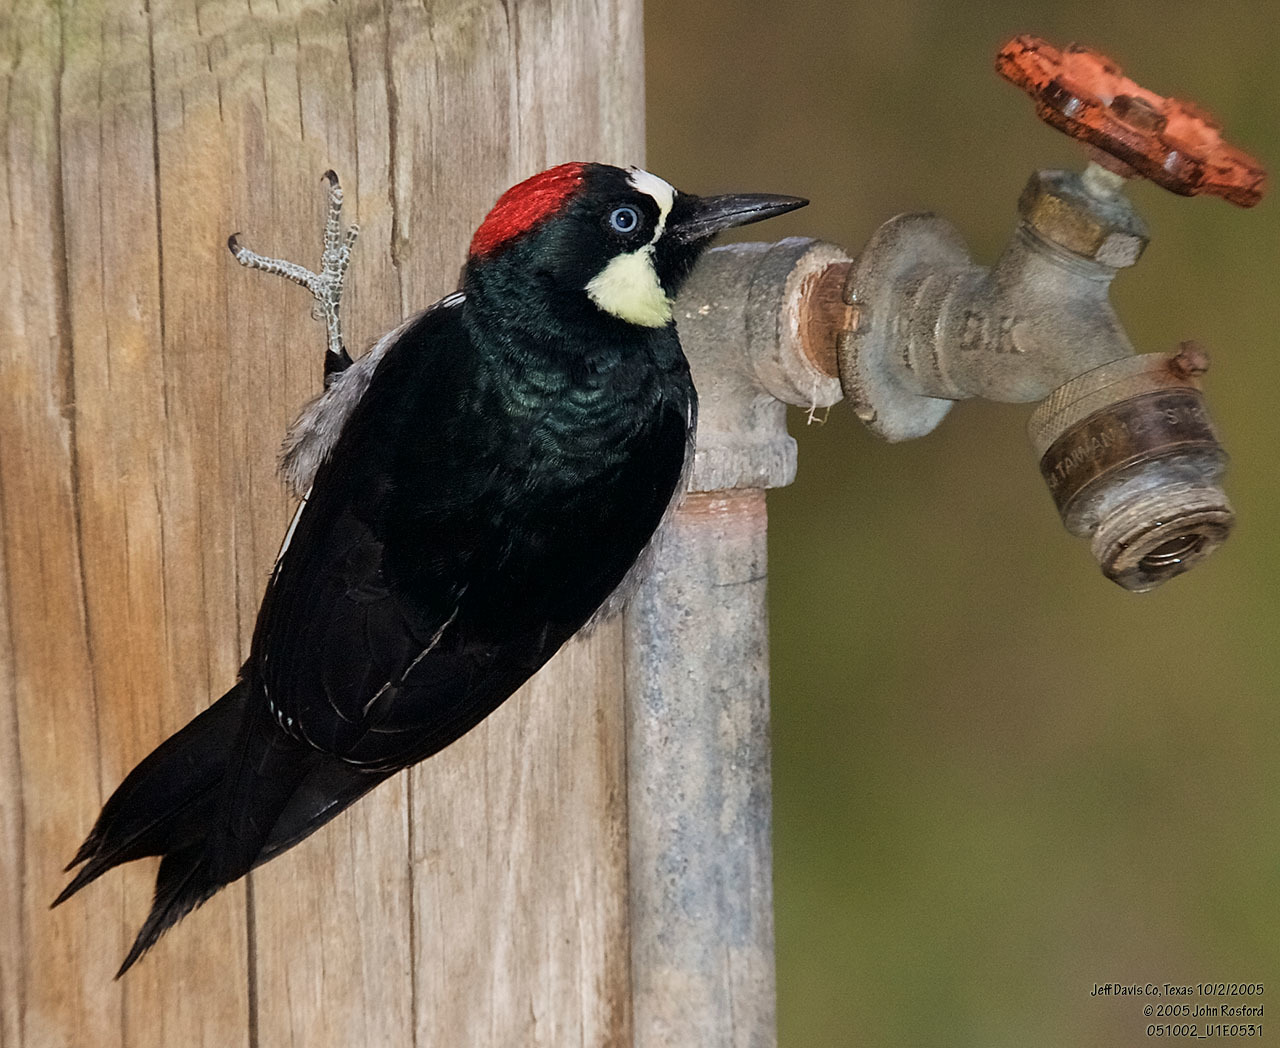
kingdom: Animalia
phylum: Chordata
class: Aves
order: Piciformes
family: Picidae
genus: Melanerpes
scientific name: Melanerpes formicivorus
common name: Acorn woodpecker
